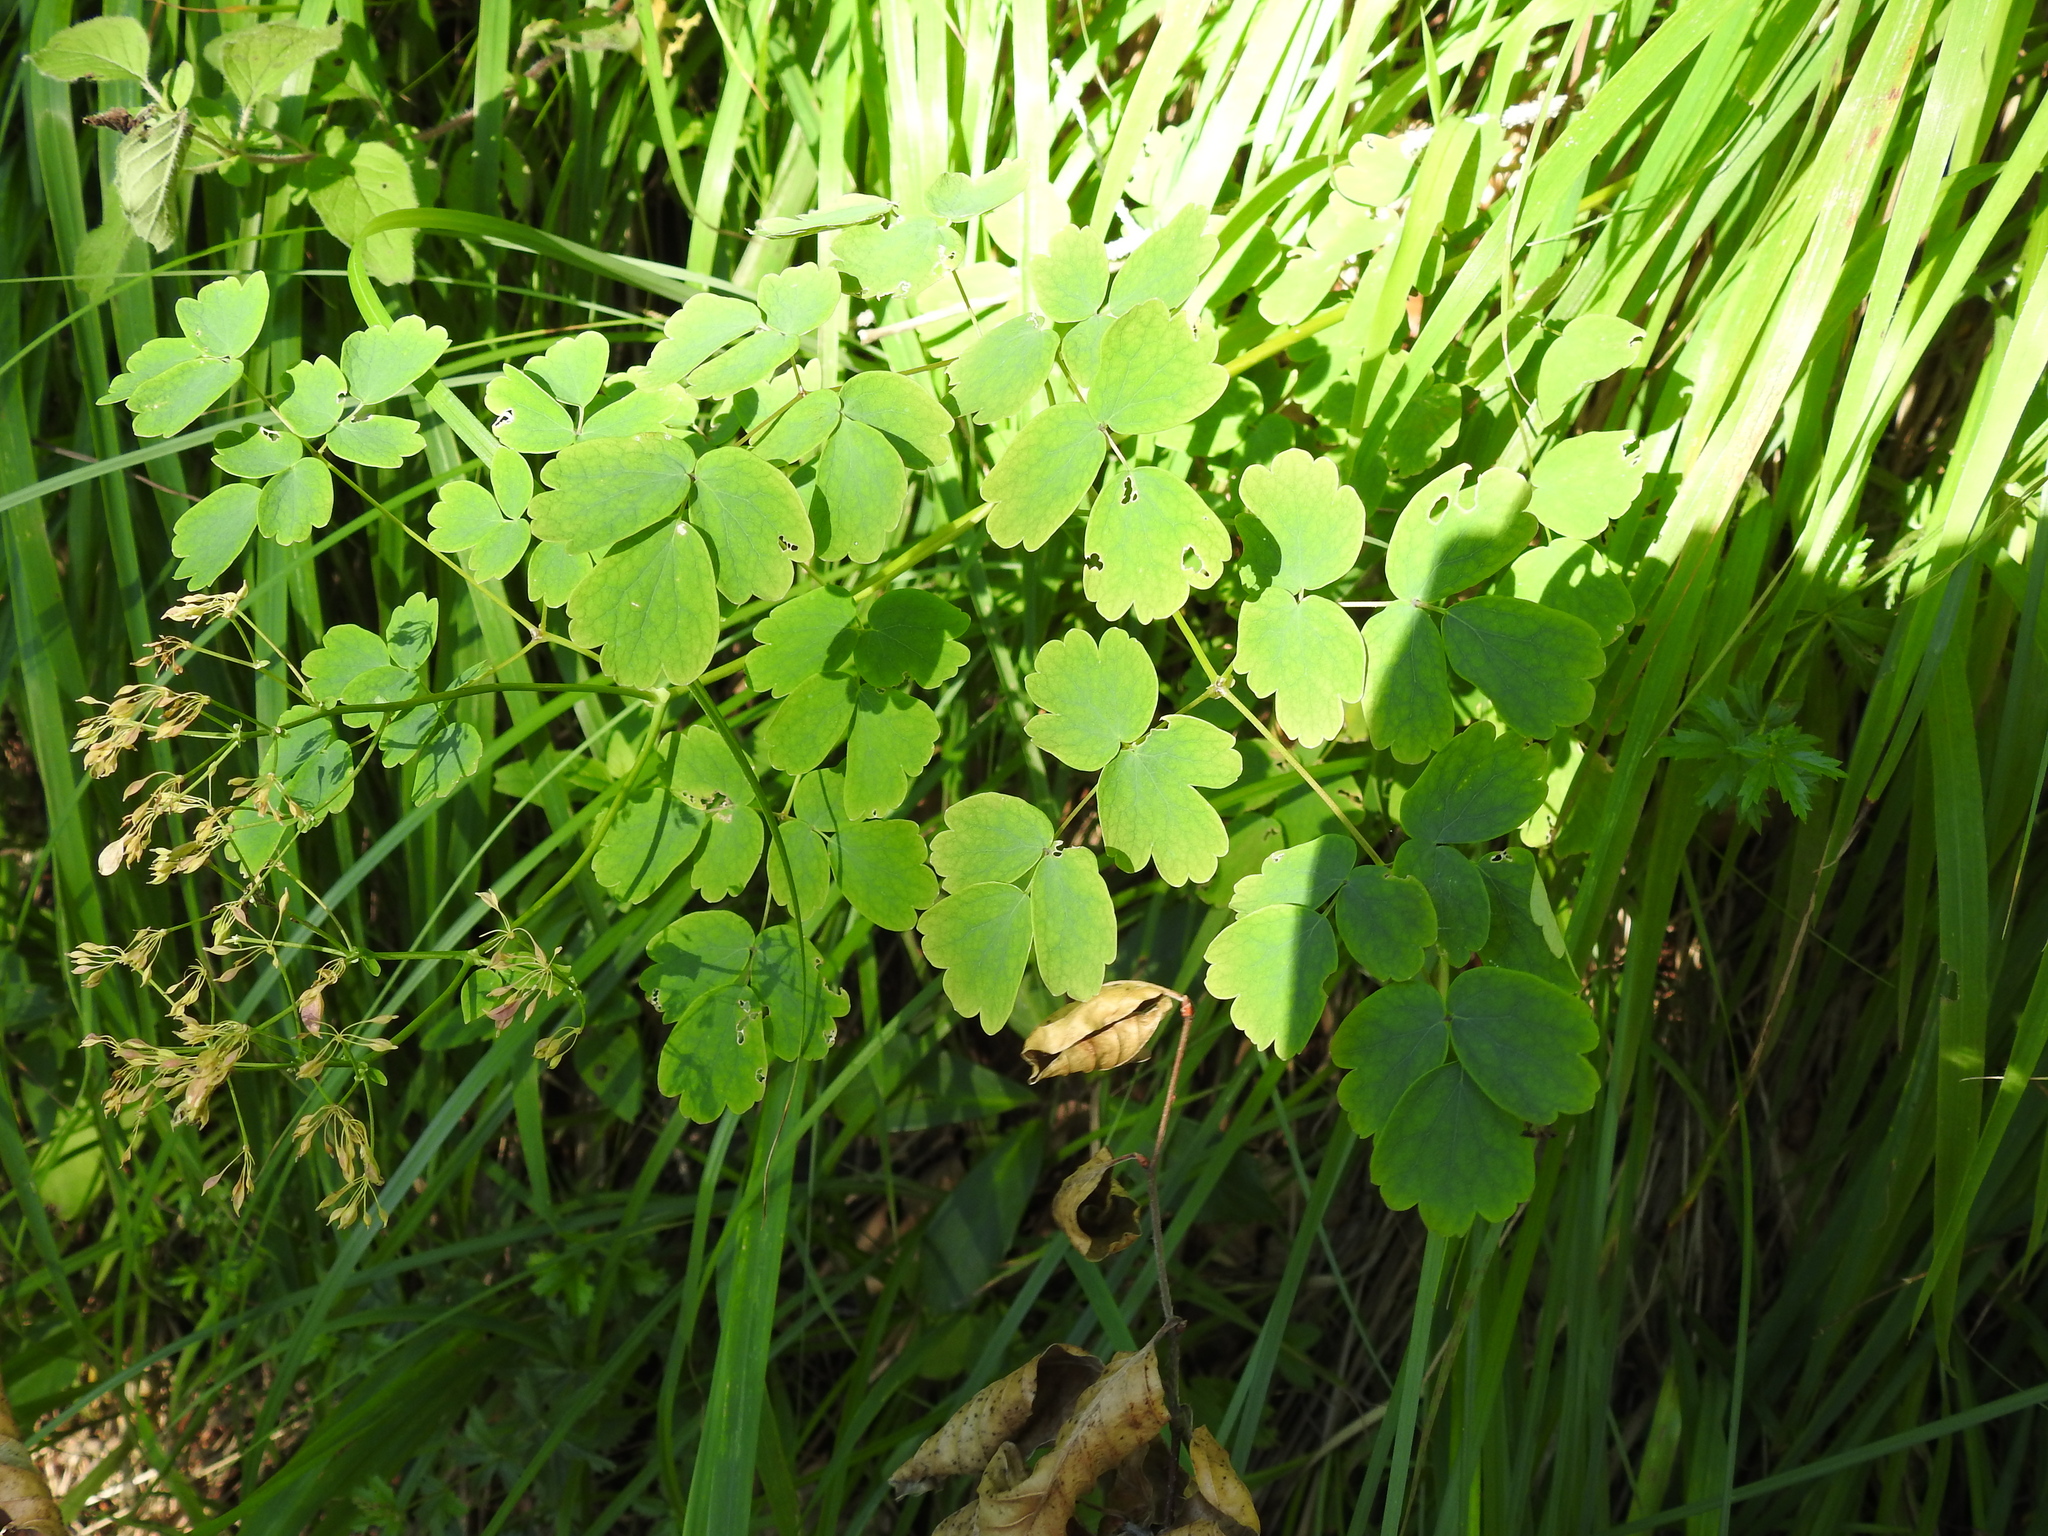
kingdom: Plantae
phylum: Tracheophyta
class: Magnoliopsida
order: Ranunculales
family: Ranunculaceae
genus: Thalictrum
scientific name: Thalictrum aquilegiifolium
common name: French meadow-rue
